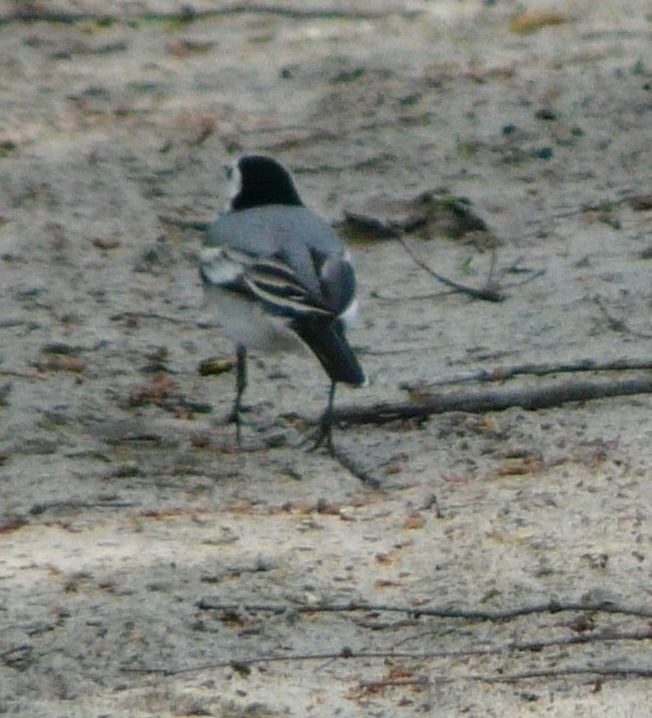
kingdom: Animalia
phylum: Chordata
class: Aves
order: Passeriformes
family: Motacillidae
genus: Motacilla
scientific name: Motacilla alba
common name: White wagtail
